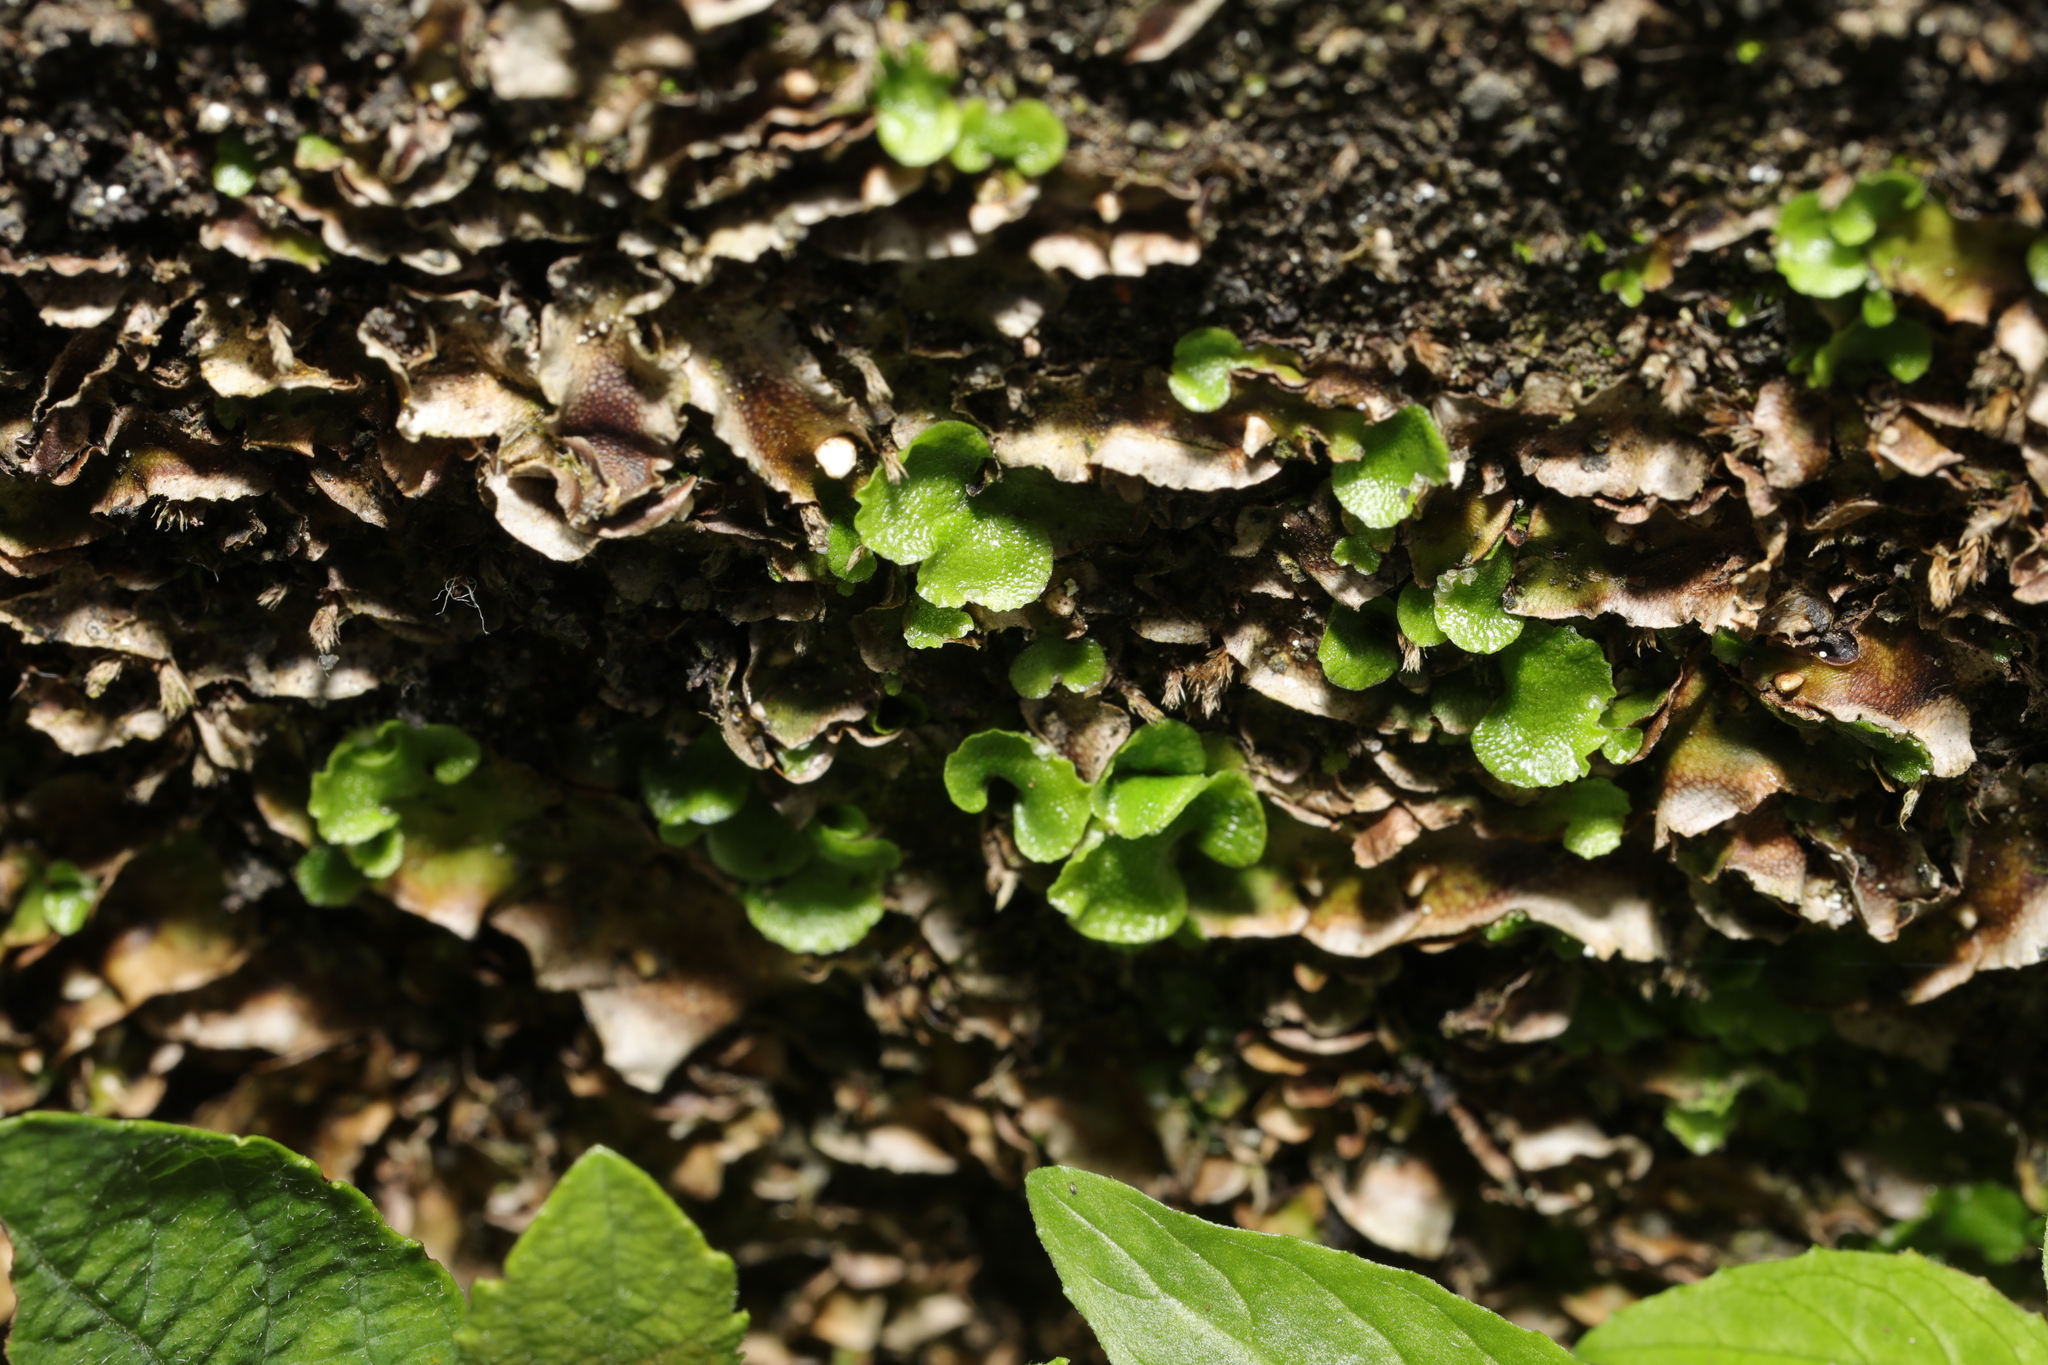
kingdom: Plantae
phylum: Marchantiophyta
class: Marchantiopsida
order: Lunulariales
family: Lunulariaceae
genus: Lunularia
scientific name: Lunularia cruciata
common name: Crescent-cup liverwort
